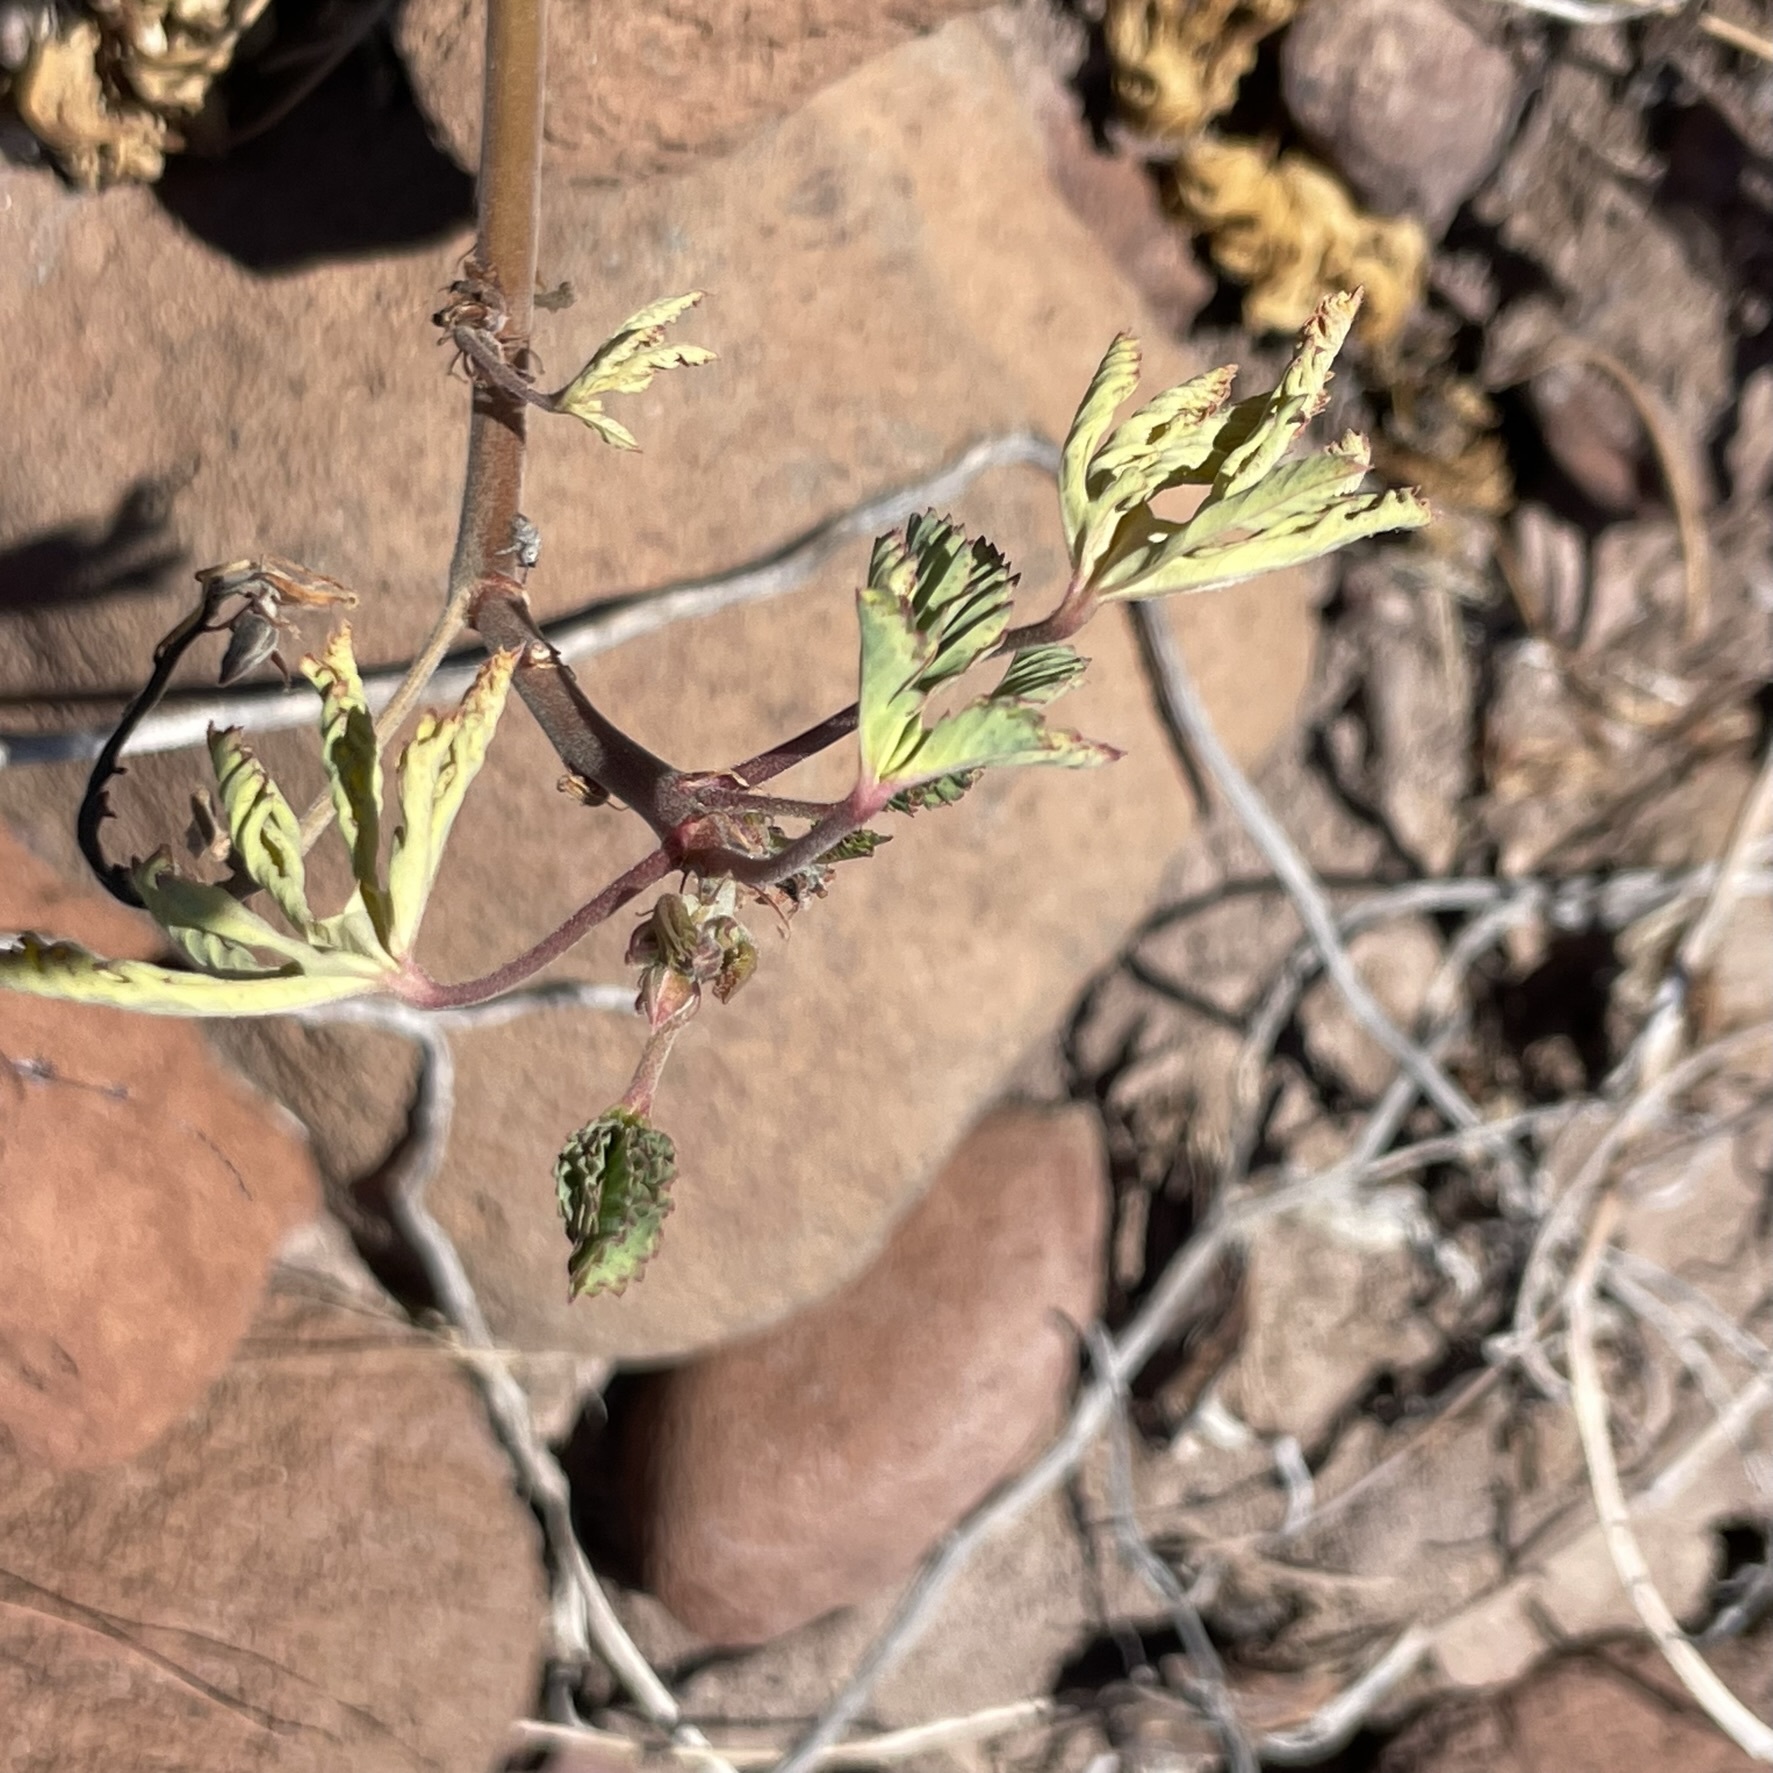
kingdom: Plantae
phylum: Tracheophyta
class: Magnoliopsida
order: Malvales
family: Cochlospermaceae
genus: Cochlospermum
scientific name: Cochlospermum palmatifidum
